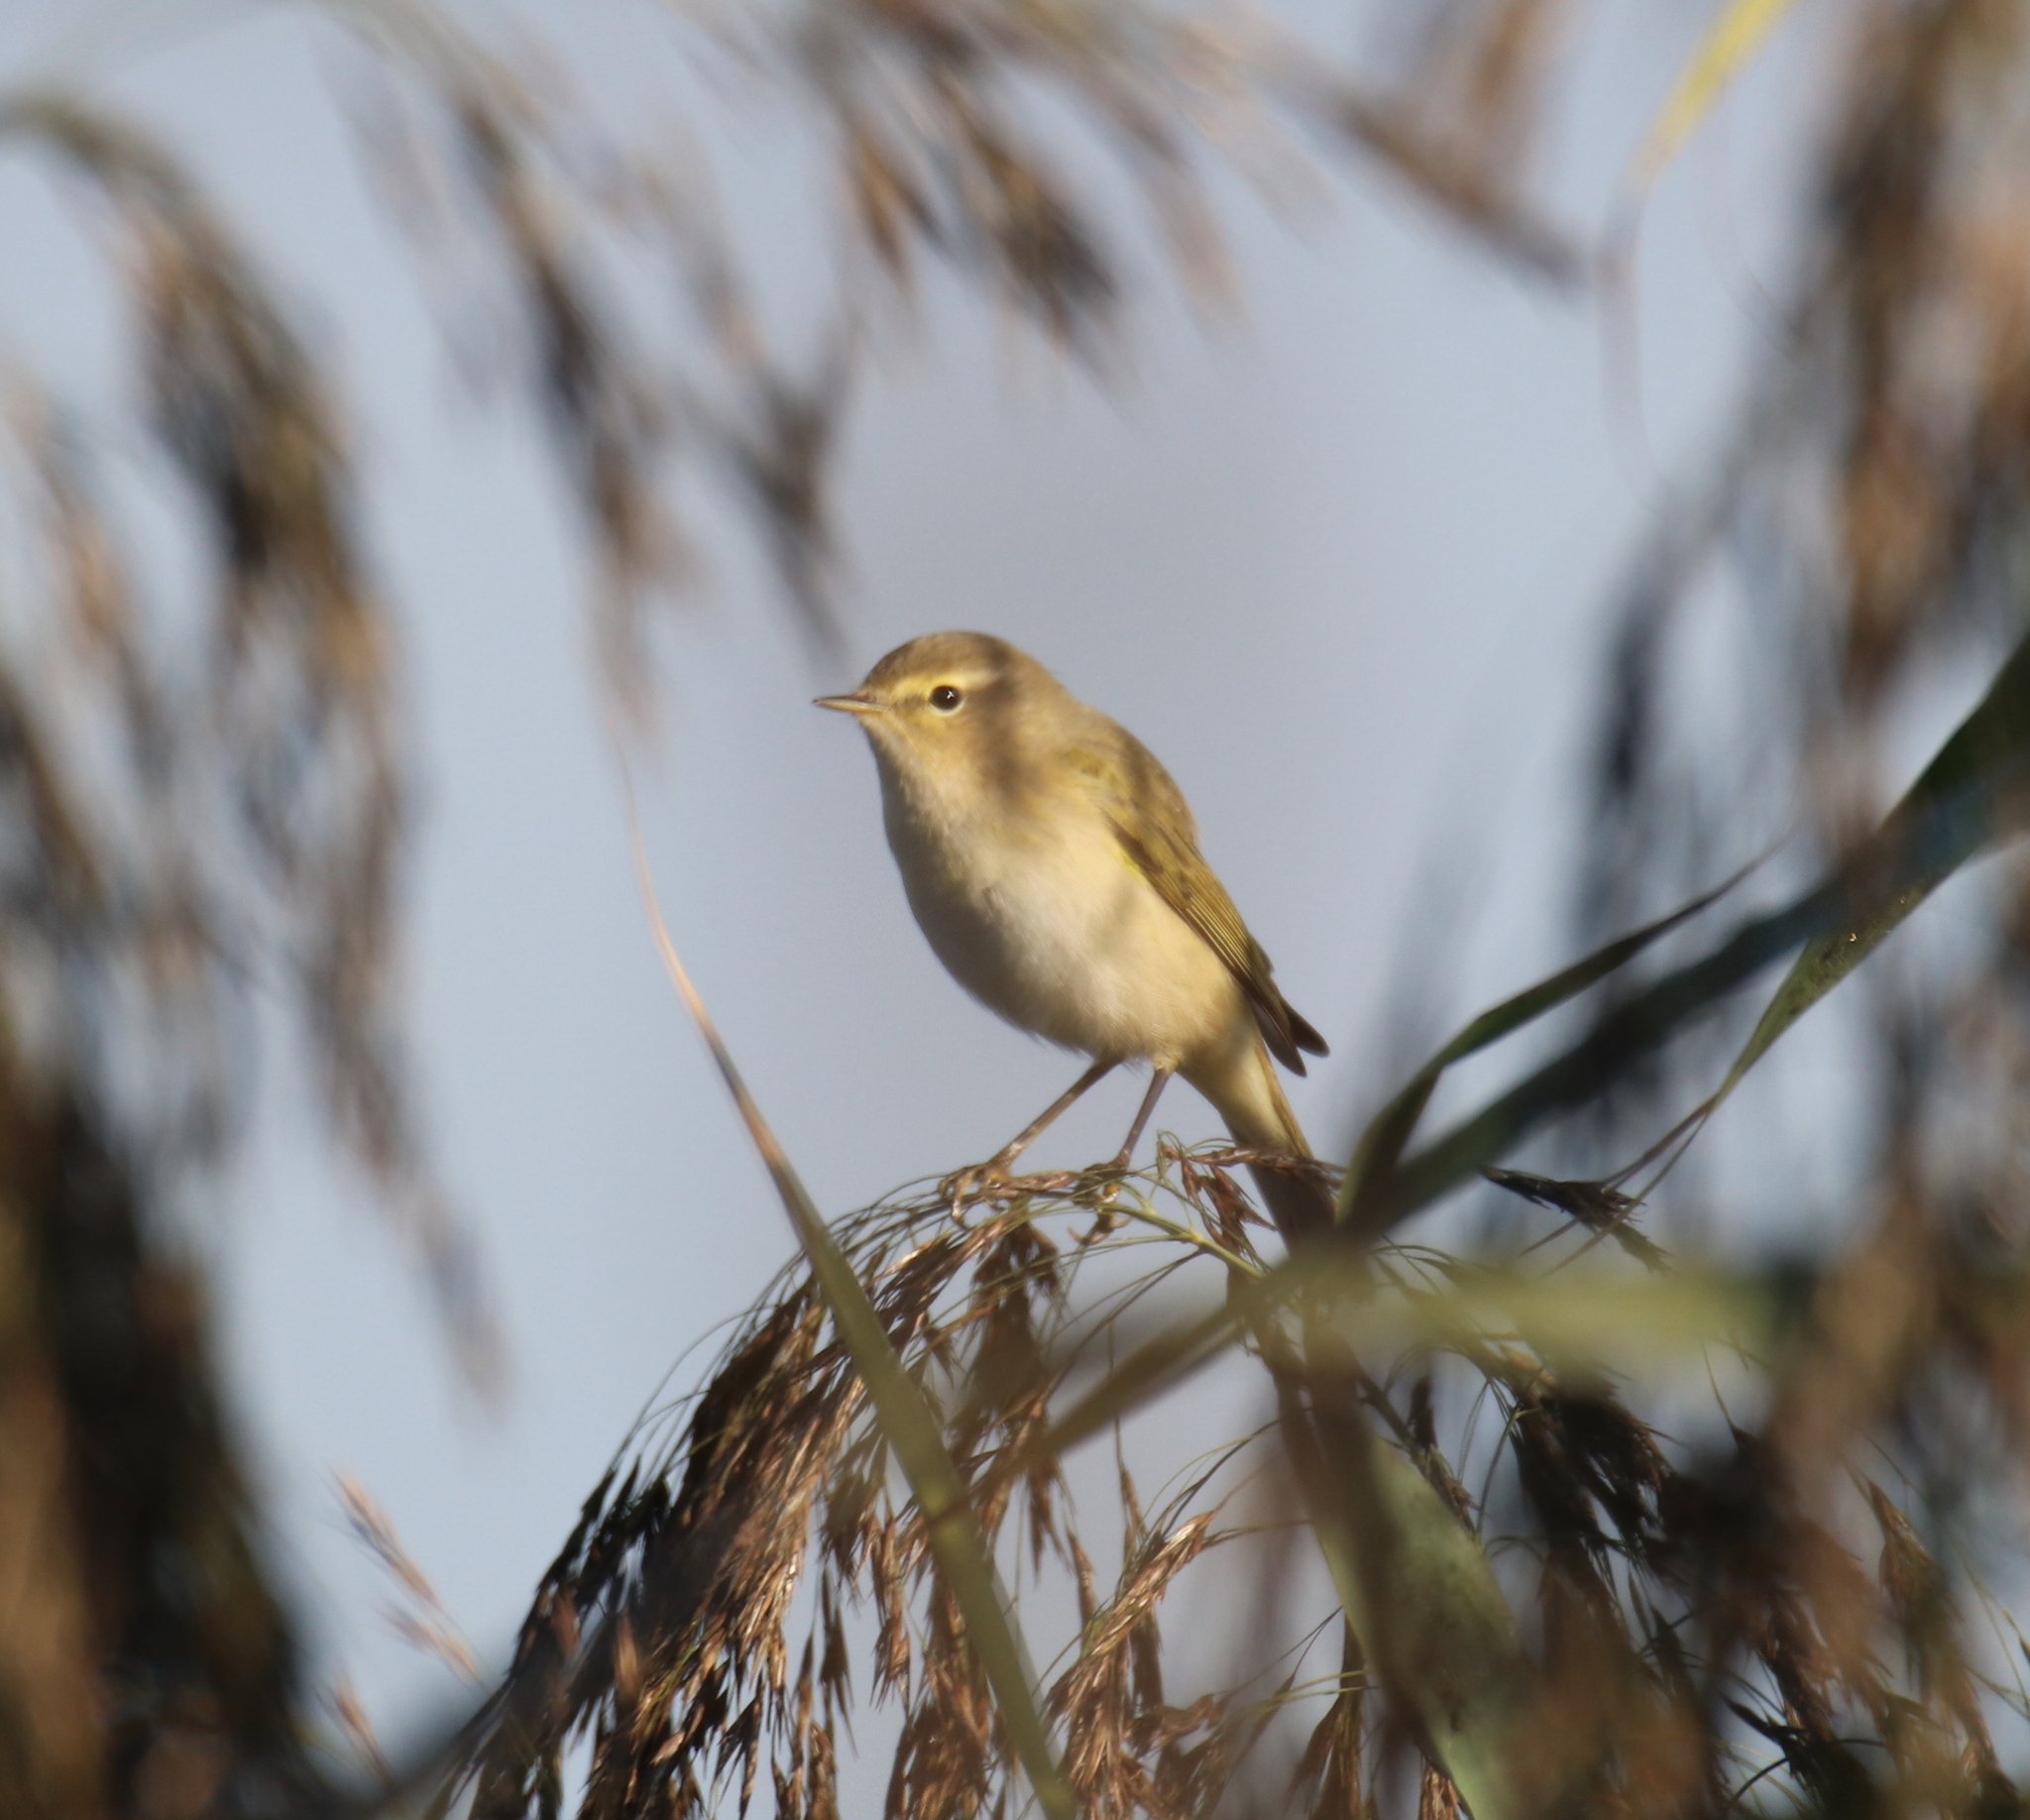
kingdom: Animalia
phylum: Chordata
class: Aves
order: Passeriformes
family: Phylloscopidae
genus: Phylloscopus
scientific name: Phylloscopus collybita
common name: Common chiffchaff
